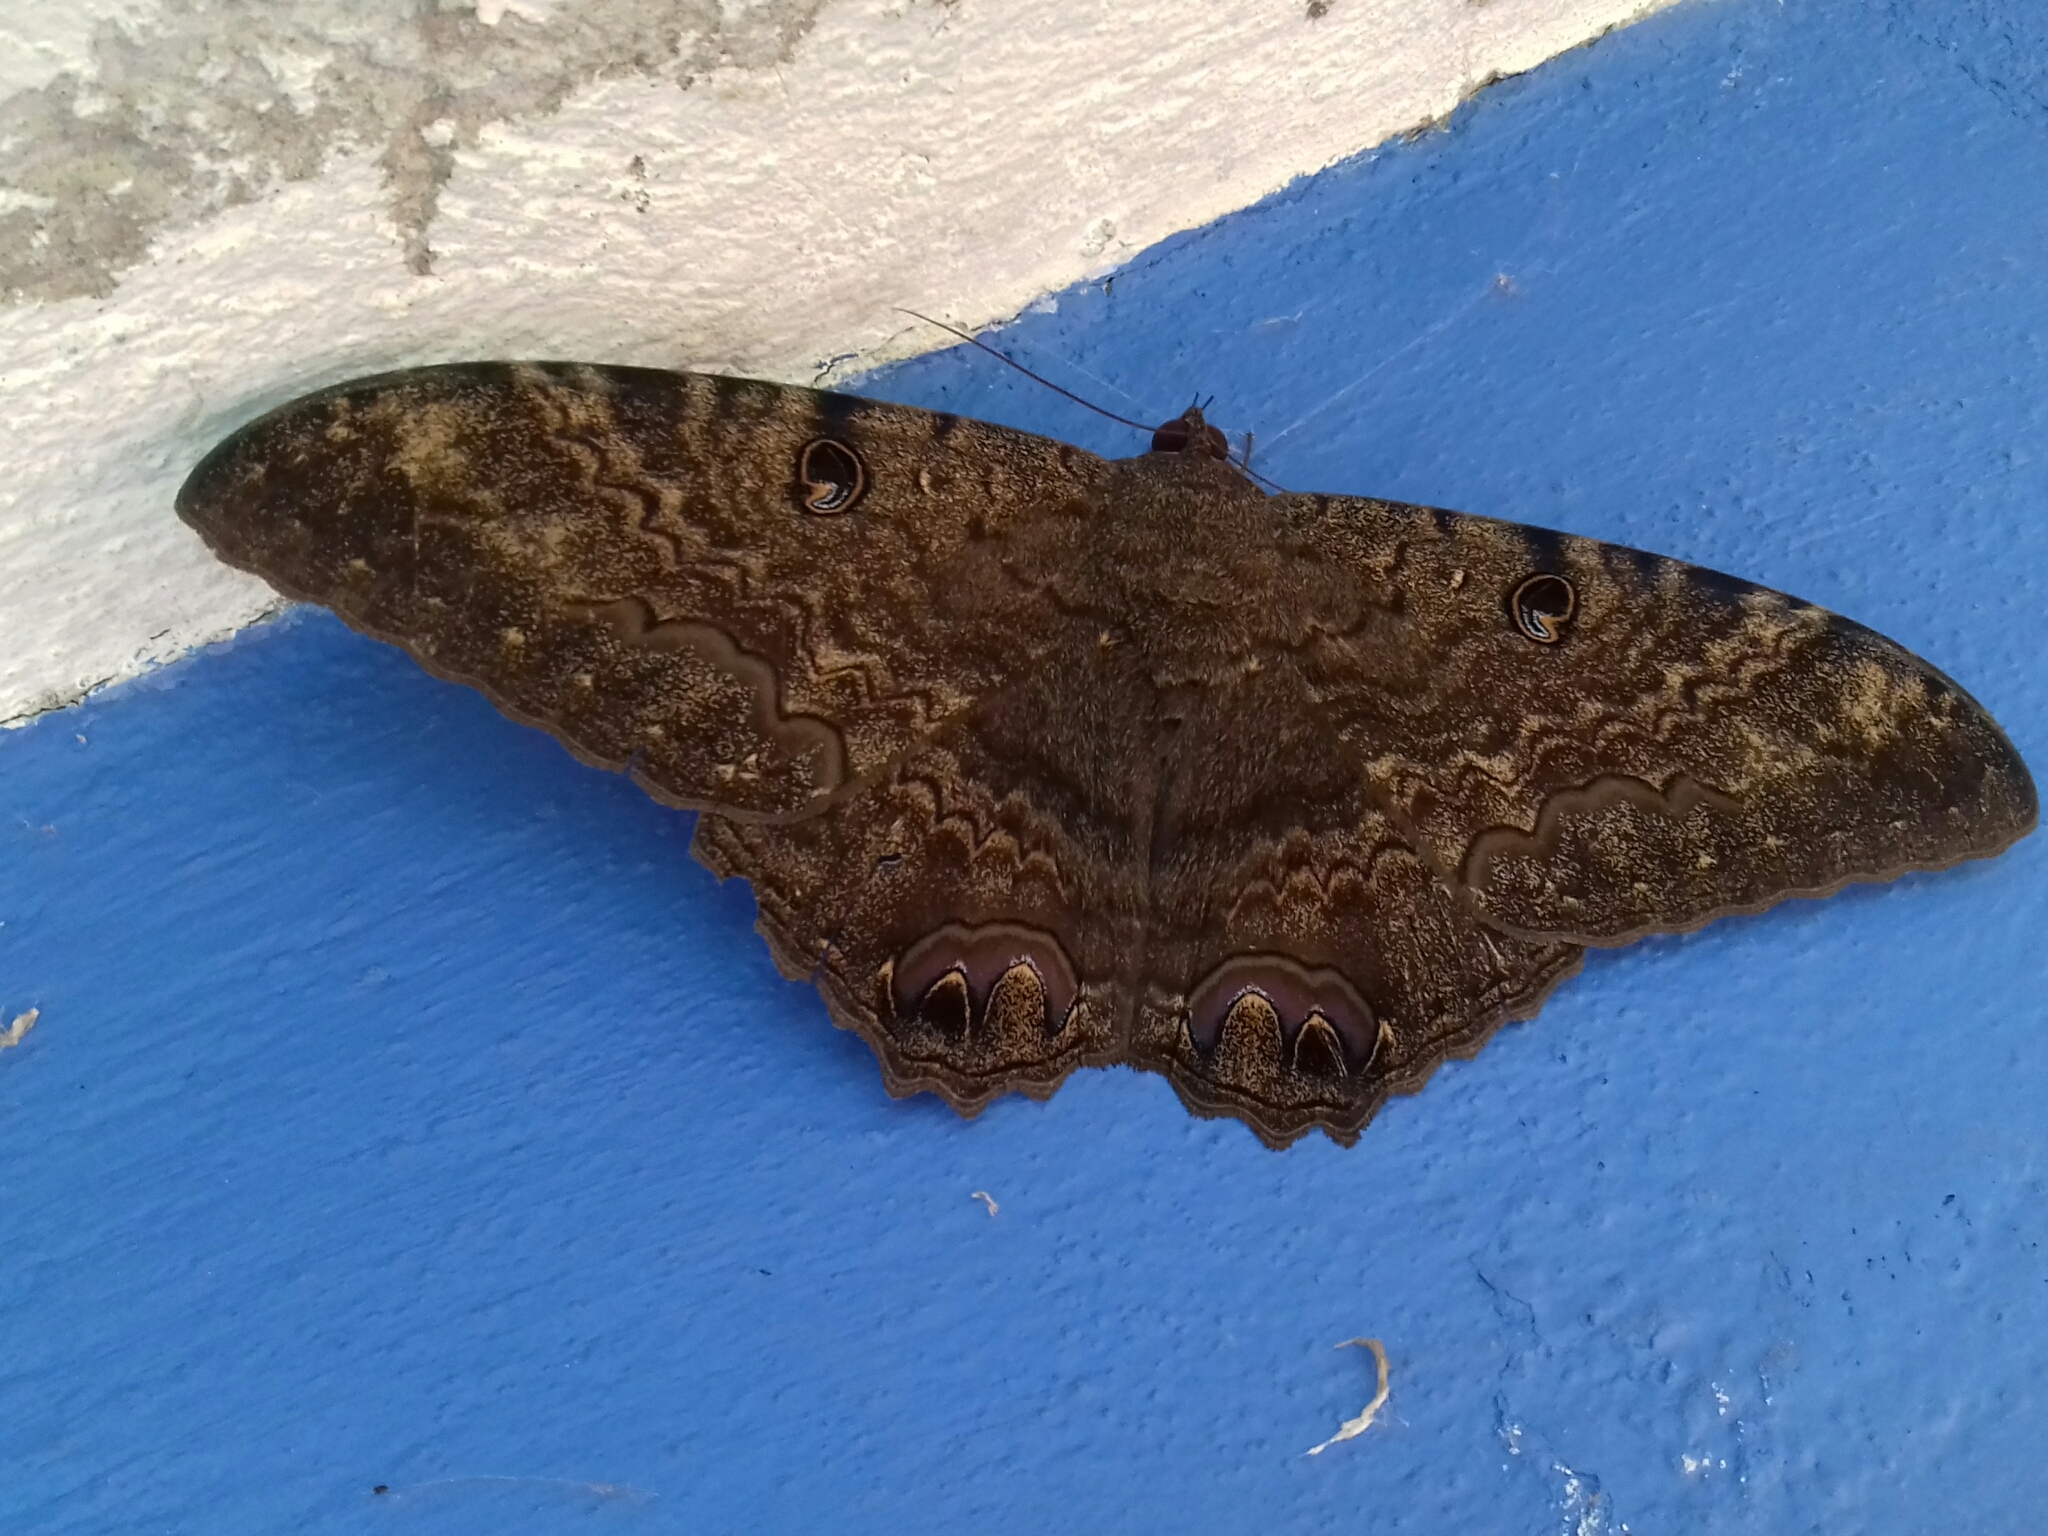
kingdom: Animalia
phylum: Arthropoda
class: Insecta
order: Lepidoptera
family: Erebidae
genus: Ascalapha
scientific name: Ascalapha odorata
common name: Black witch
